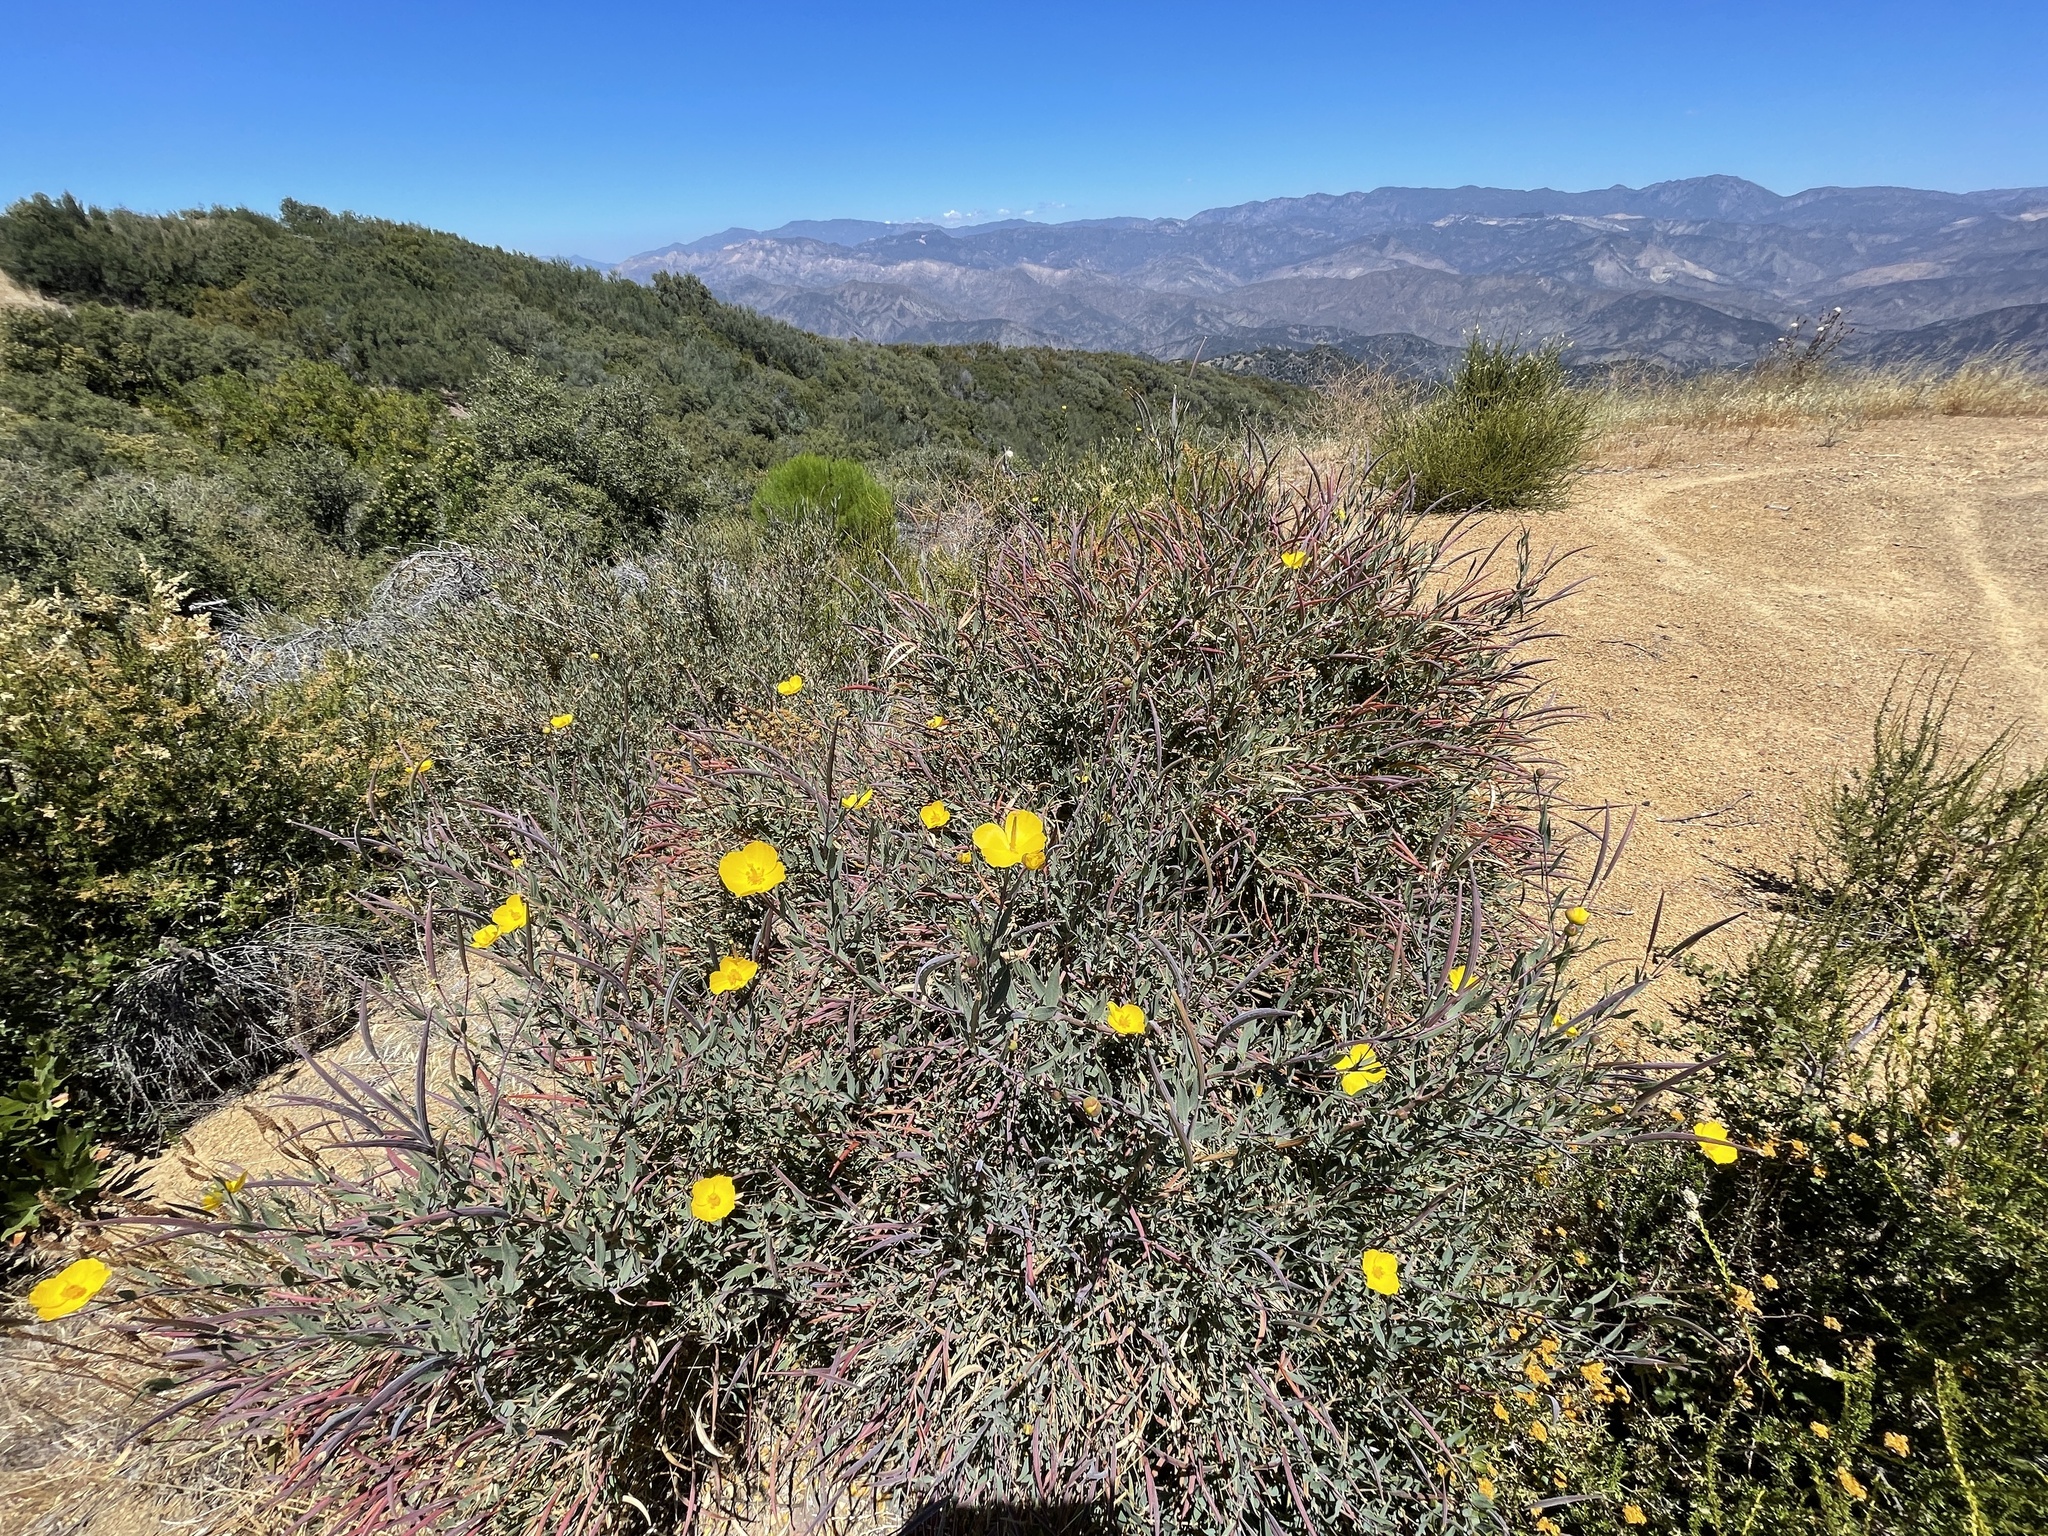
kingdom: Plantae
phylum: Tracheophyta
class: Magnoliopsida
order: Ranunculales
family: Papaveraceae
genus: Dendromecon
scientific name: Dendromecon rigida
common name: Tree poppy
